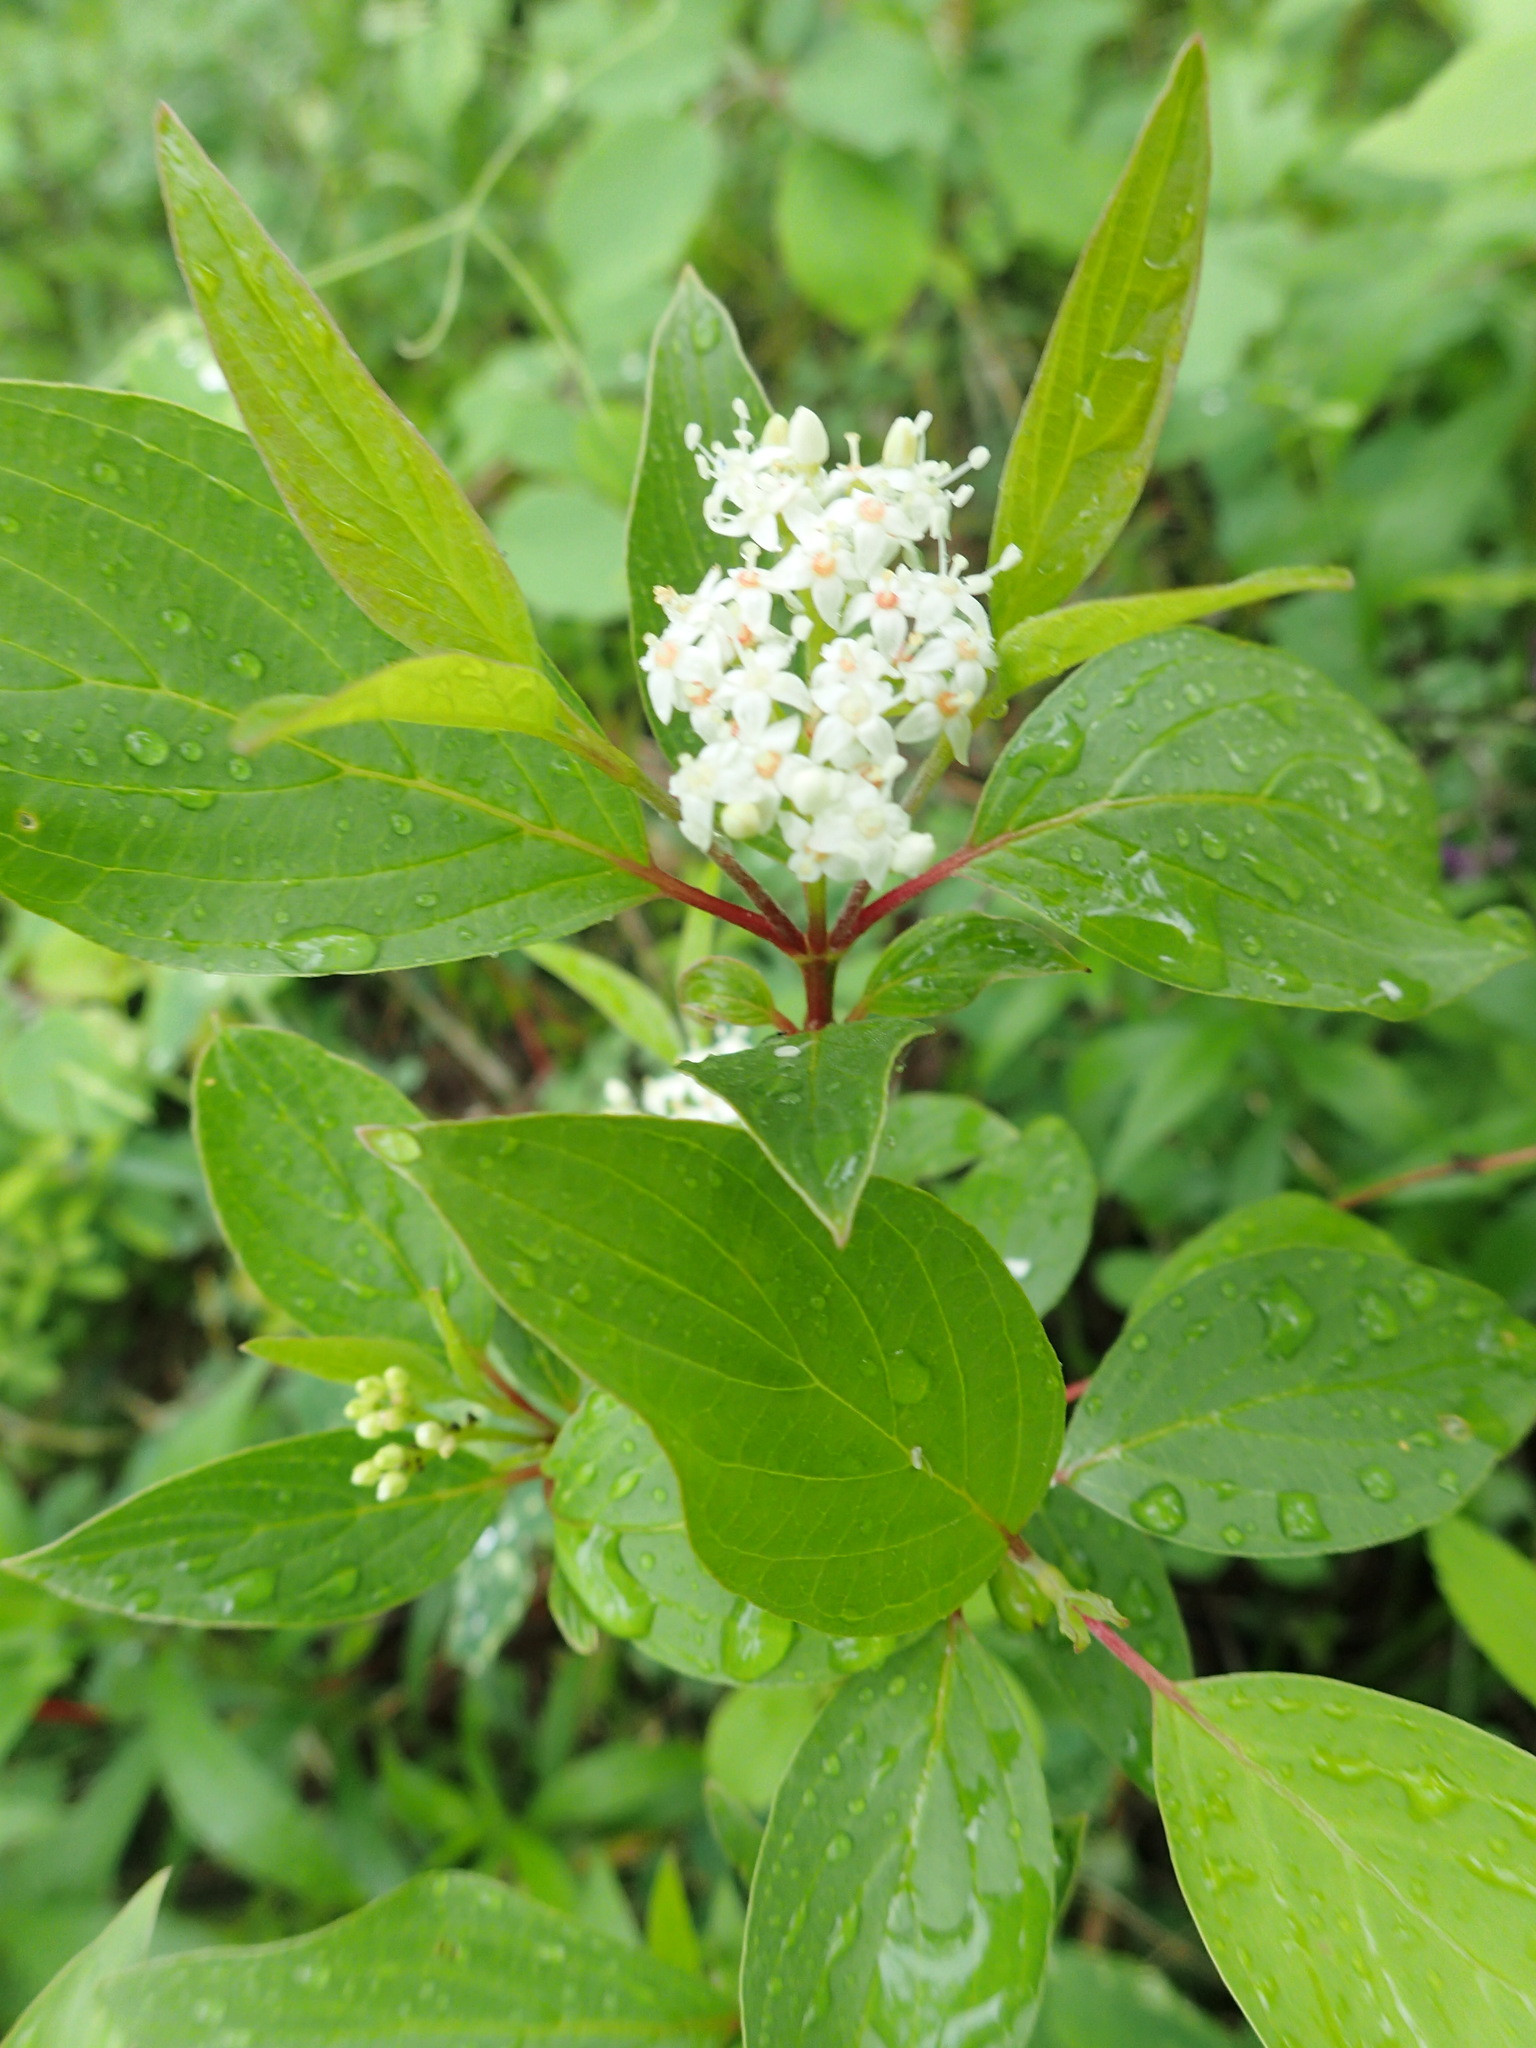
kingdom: Plantae
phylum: Tracheophyta
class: Magnoliopsida
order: Cornales
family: Cornaceae
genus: Cornus
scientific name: Cornus sericea
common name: Red-osier dogwood
